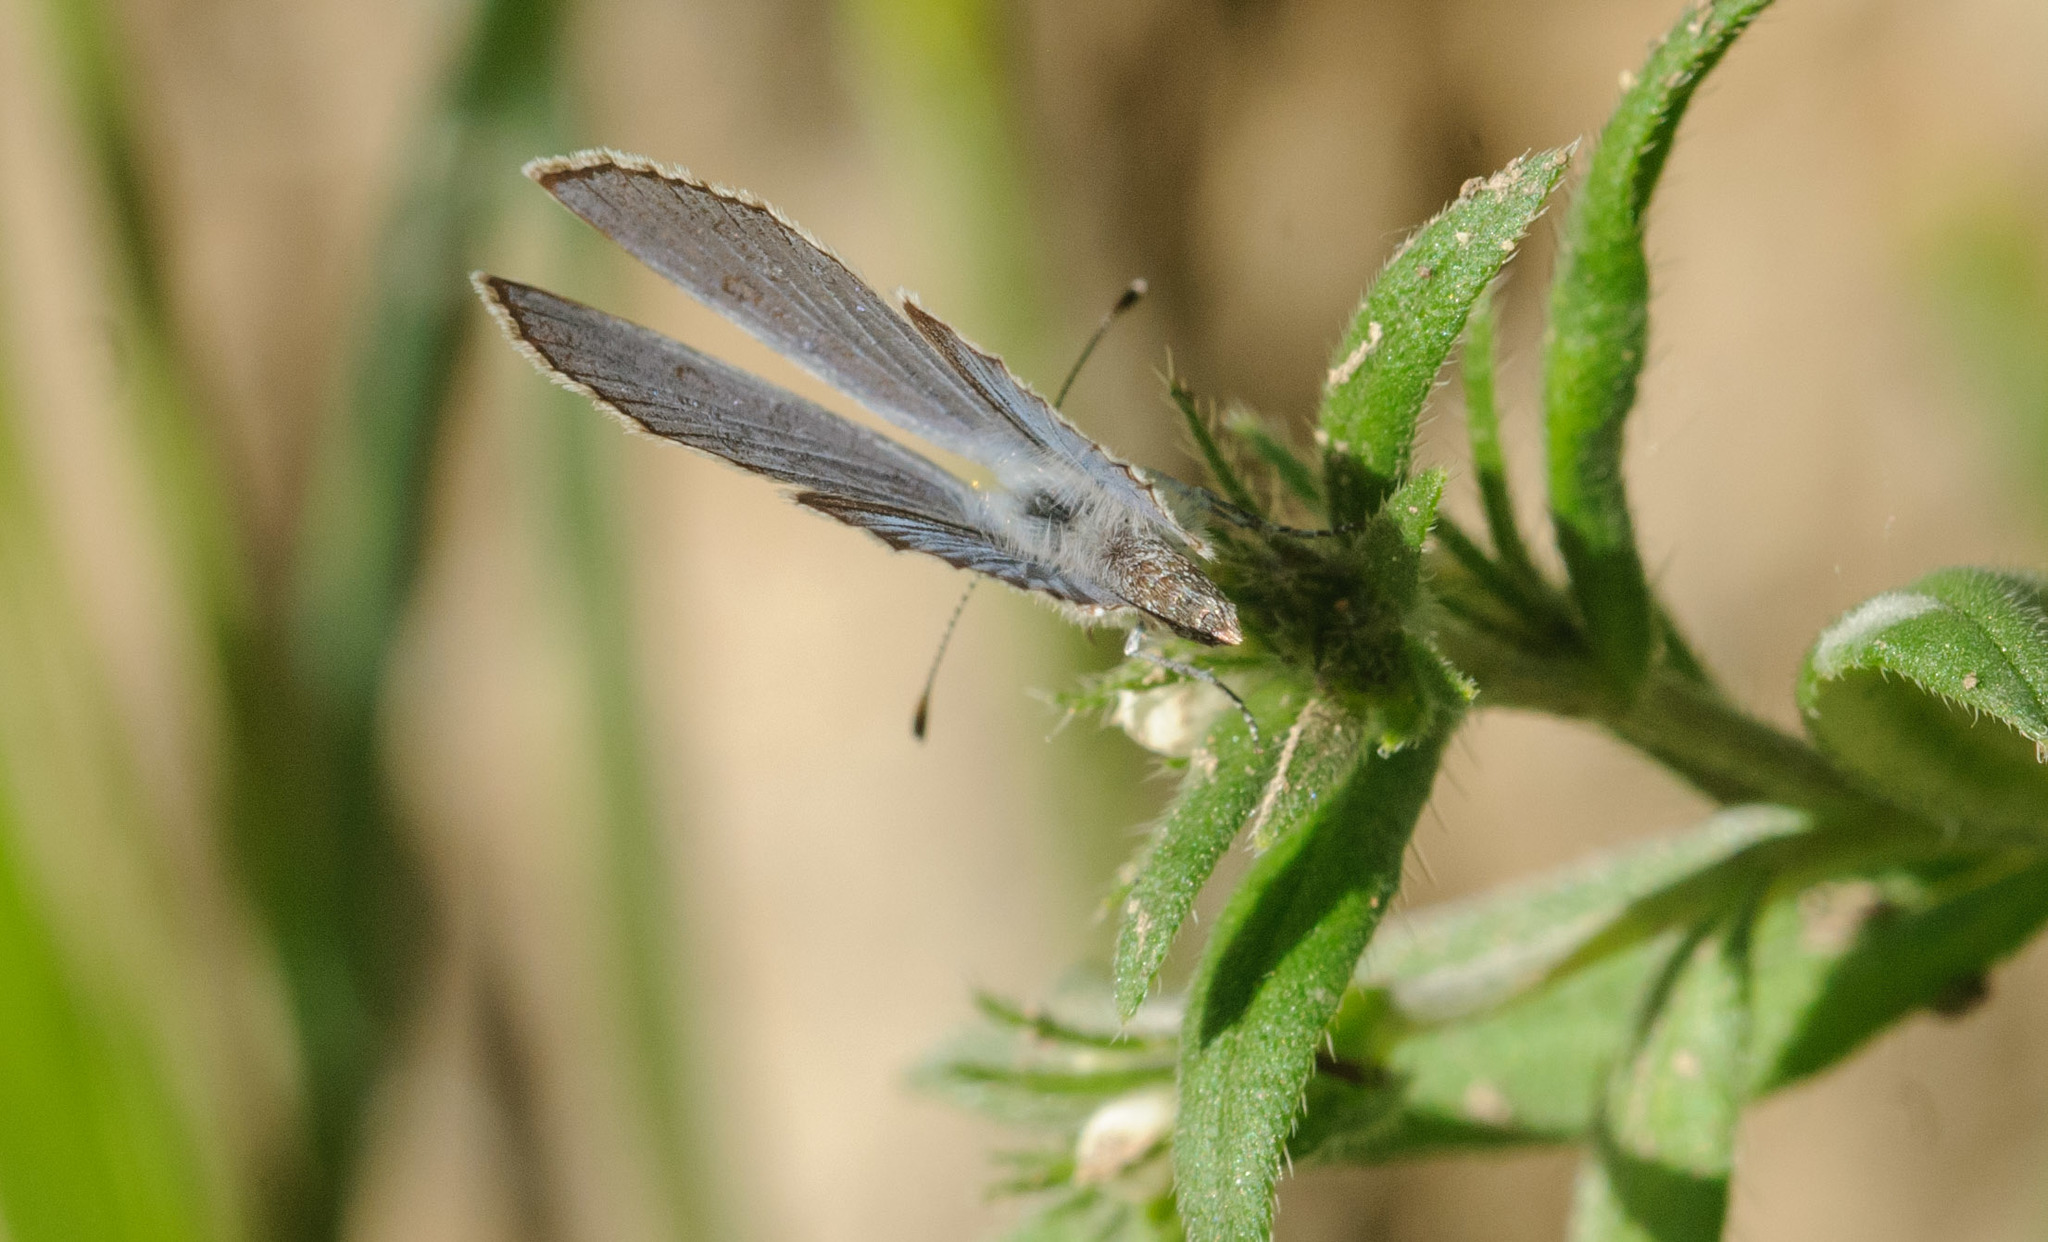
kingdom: Animalia
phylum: Arthropoda
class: Insecta
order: Lepidoptera
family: Lycaenidae
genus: Elkalyce
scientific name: Elkalyce amyntula
